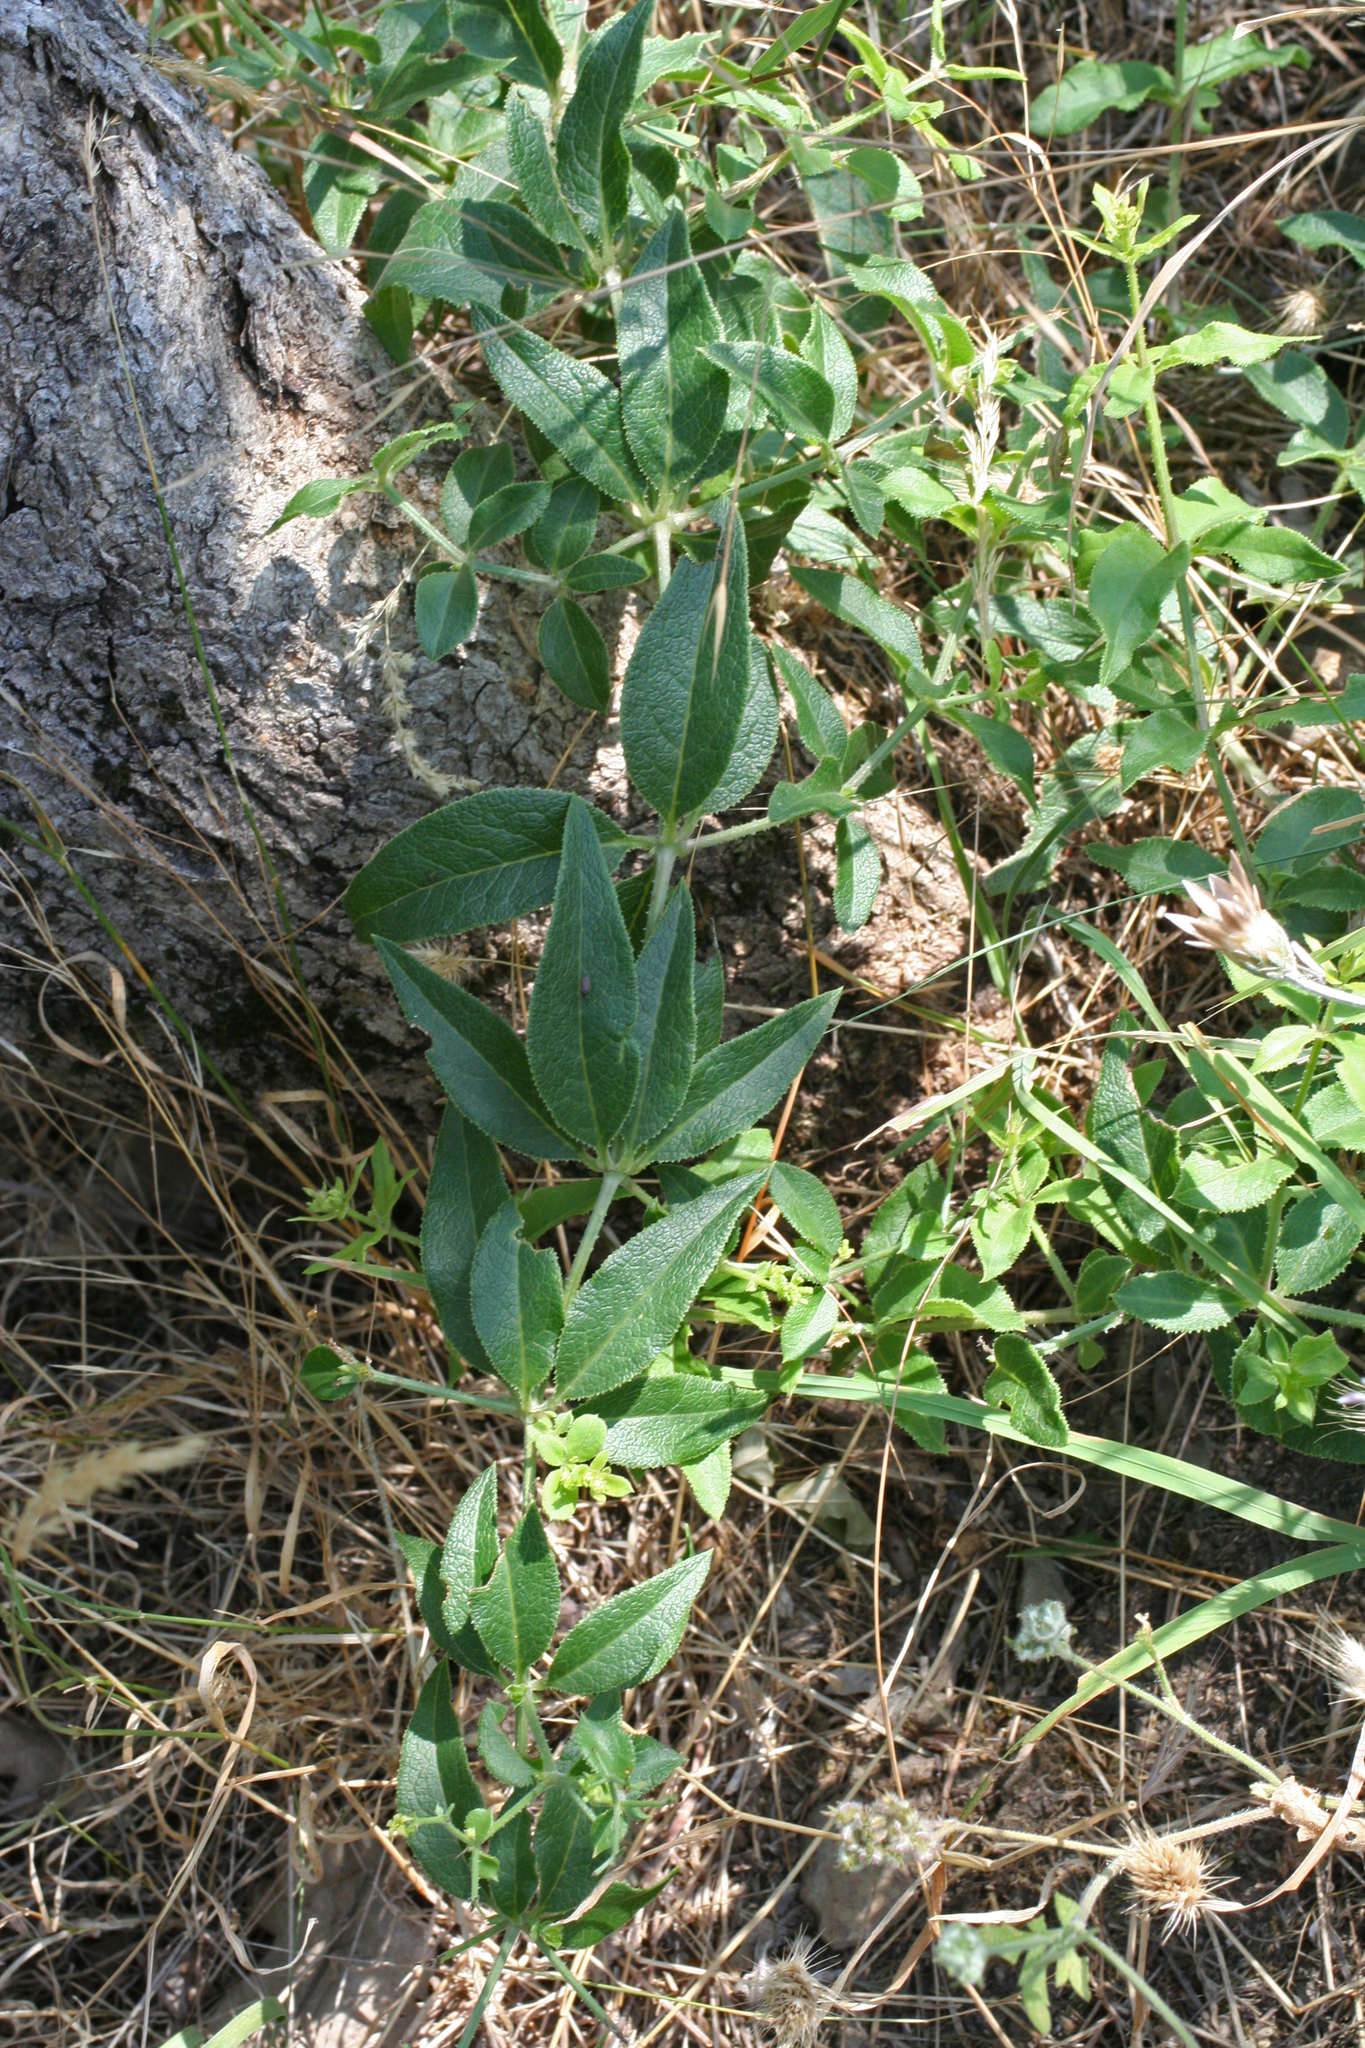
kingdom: Plantae
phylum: Tracheophyta
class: Magnoliopsida
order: Gentianales
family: Rubiaceae
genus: Rubia
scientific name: Rubia tinctorum
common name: Dyer's madder
